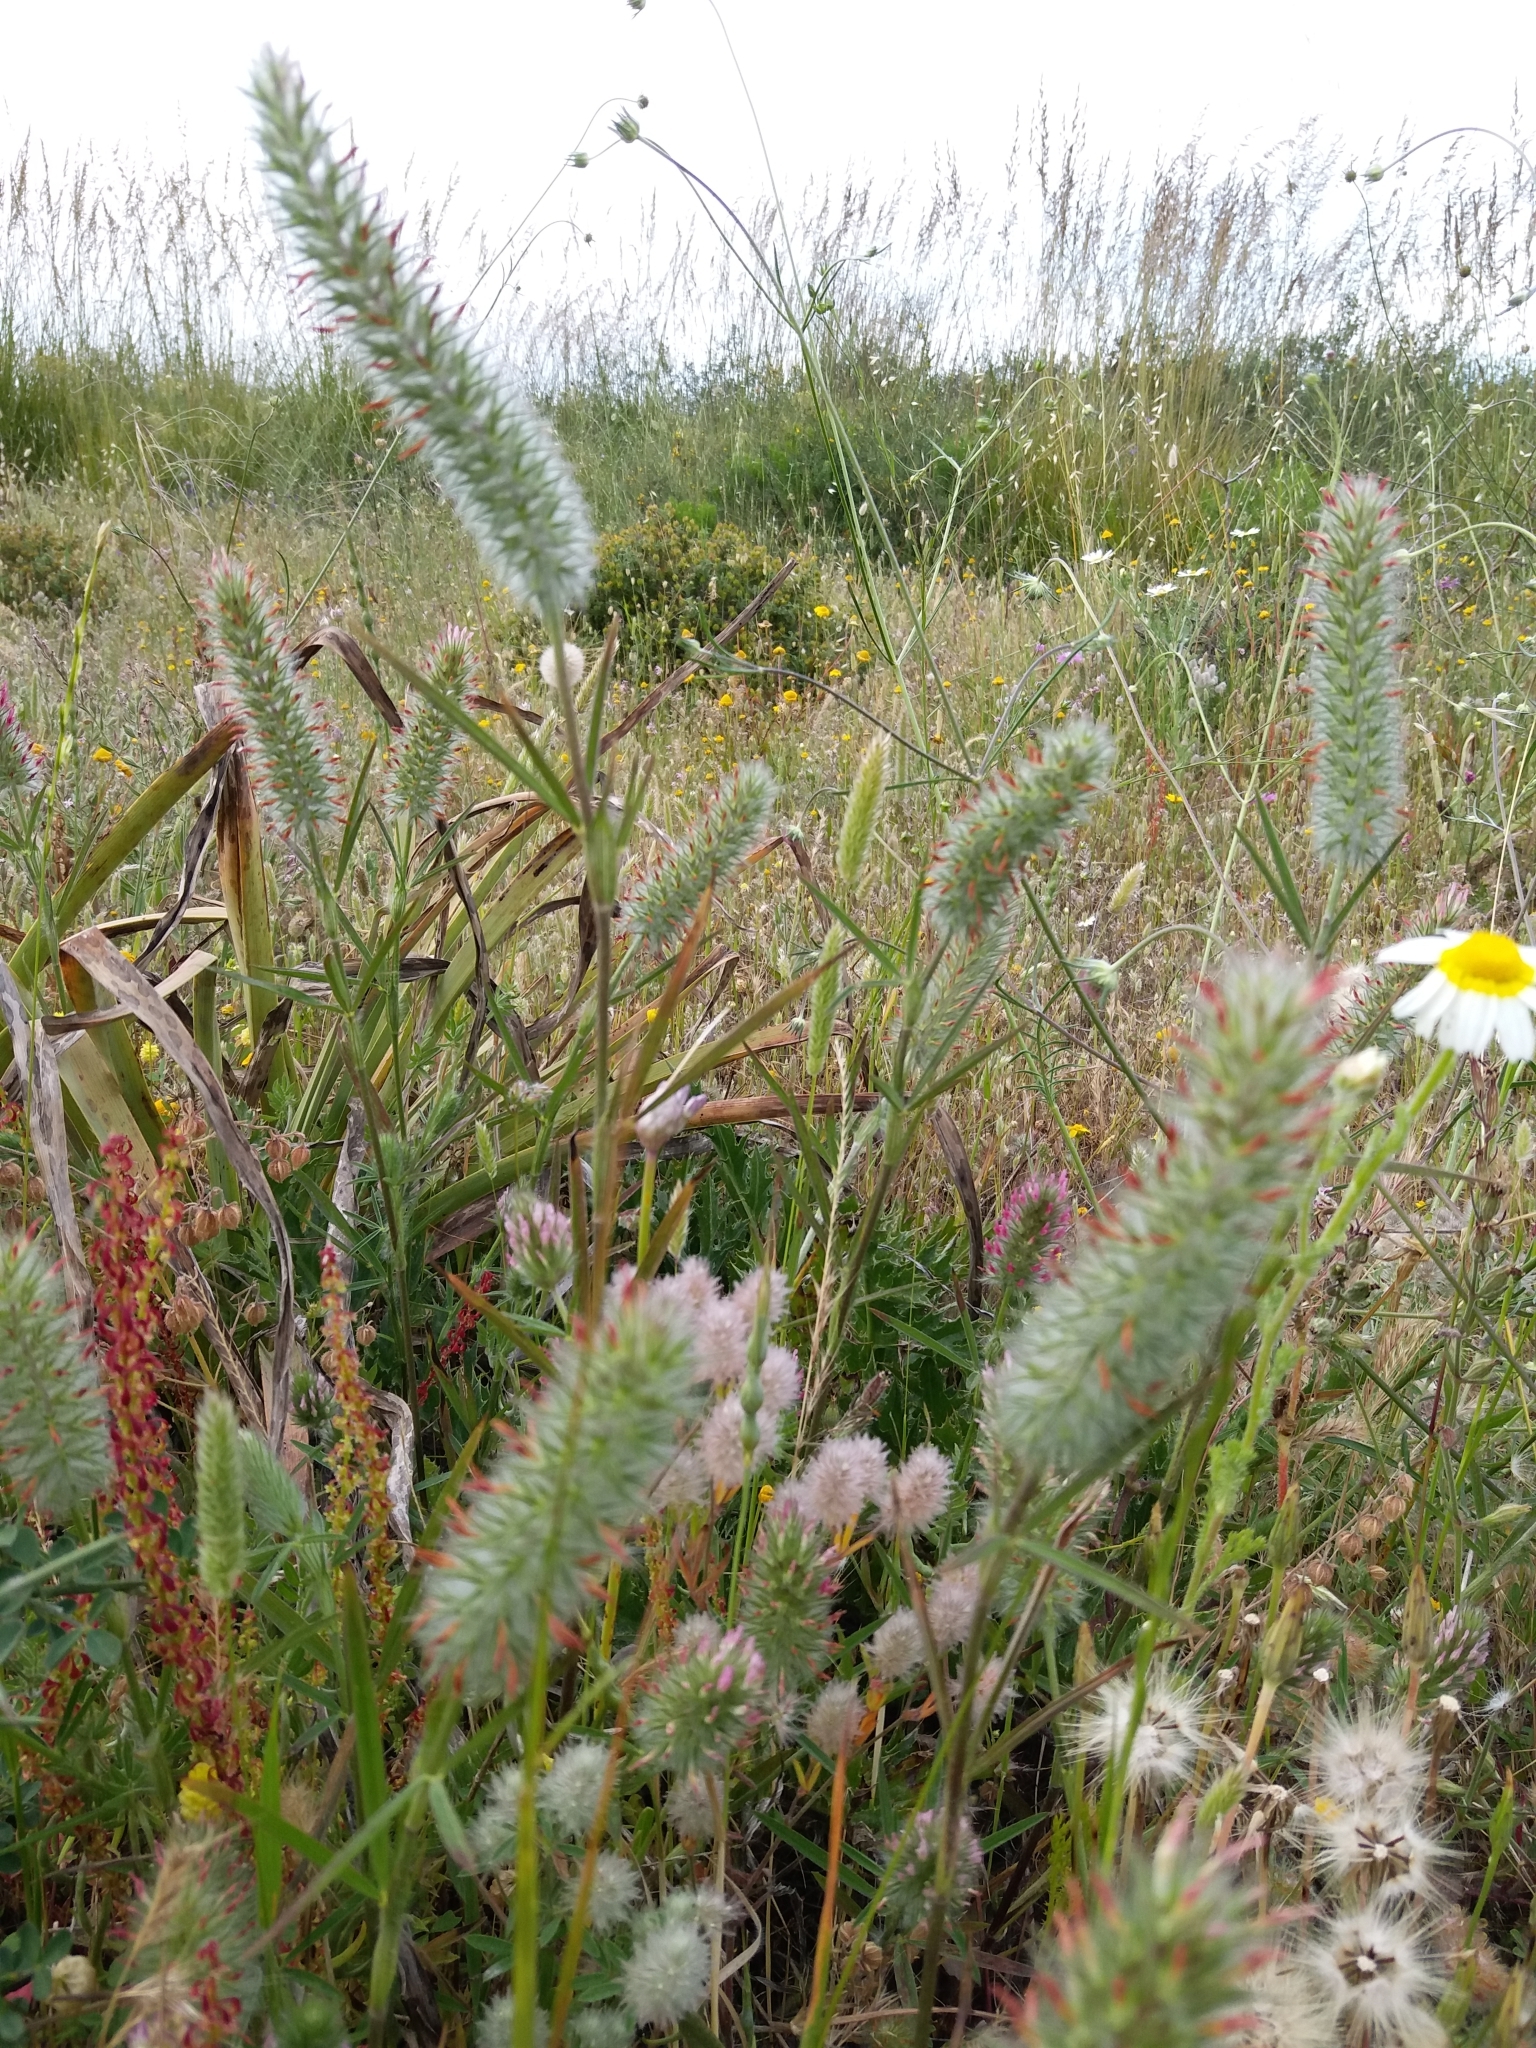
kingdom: Plantae
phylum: Tracheophyta
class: Magnoliopsida
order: Fabales
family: Fabaceae
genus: Trifolium
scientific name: Trifolium angustifolium
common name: Narrow clover
